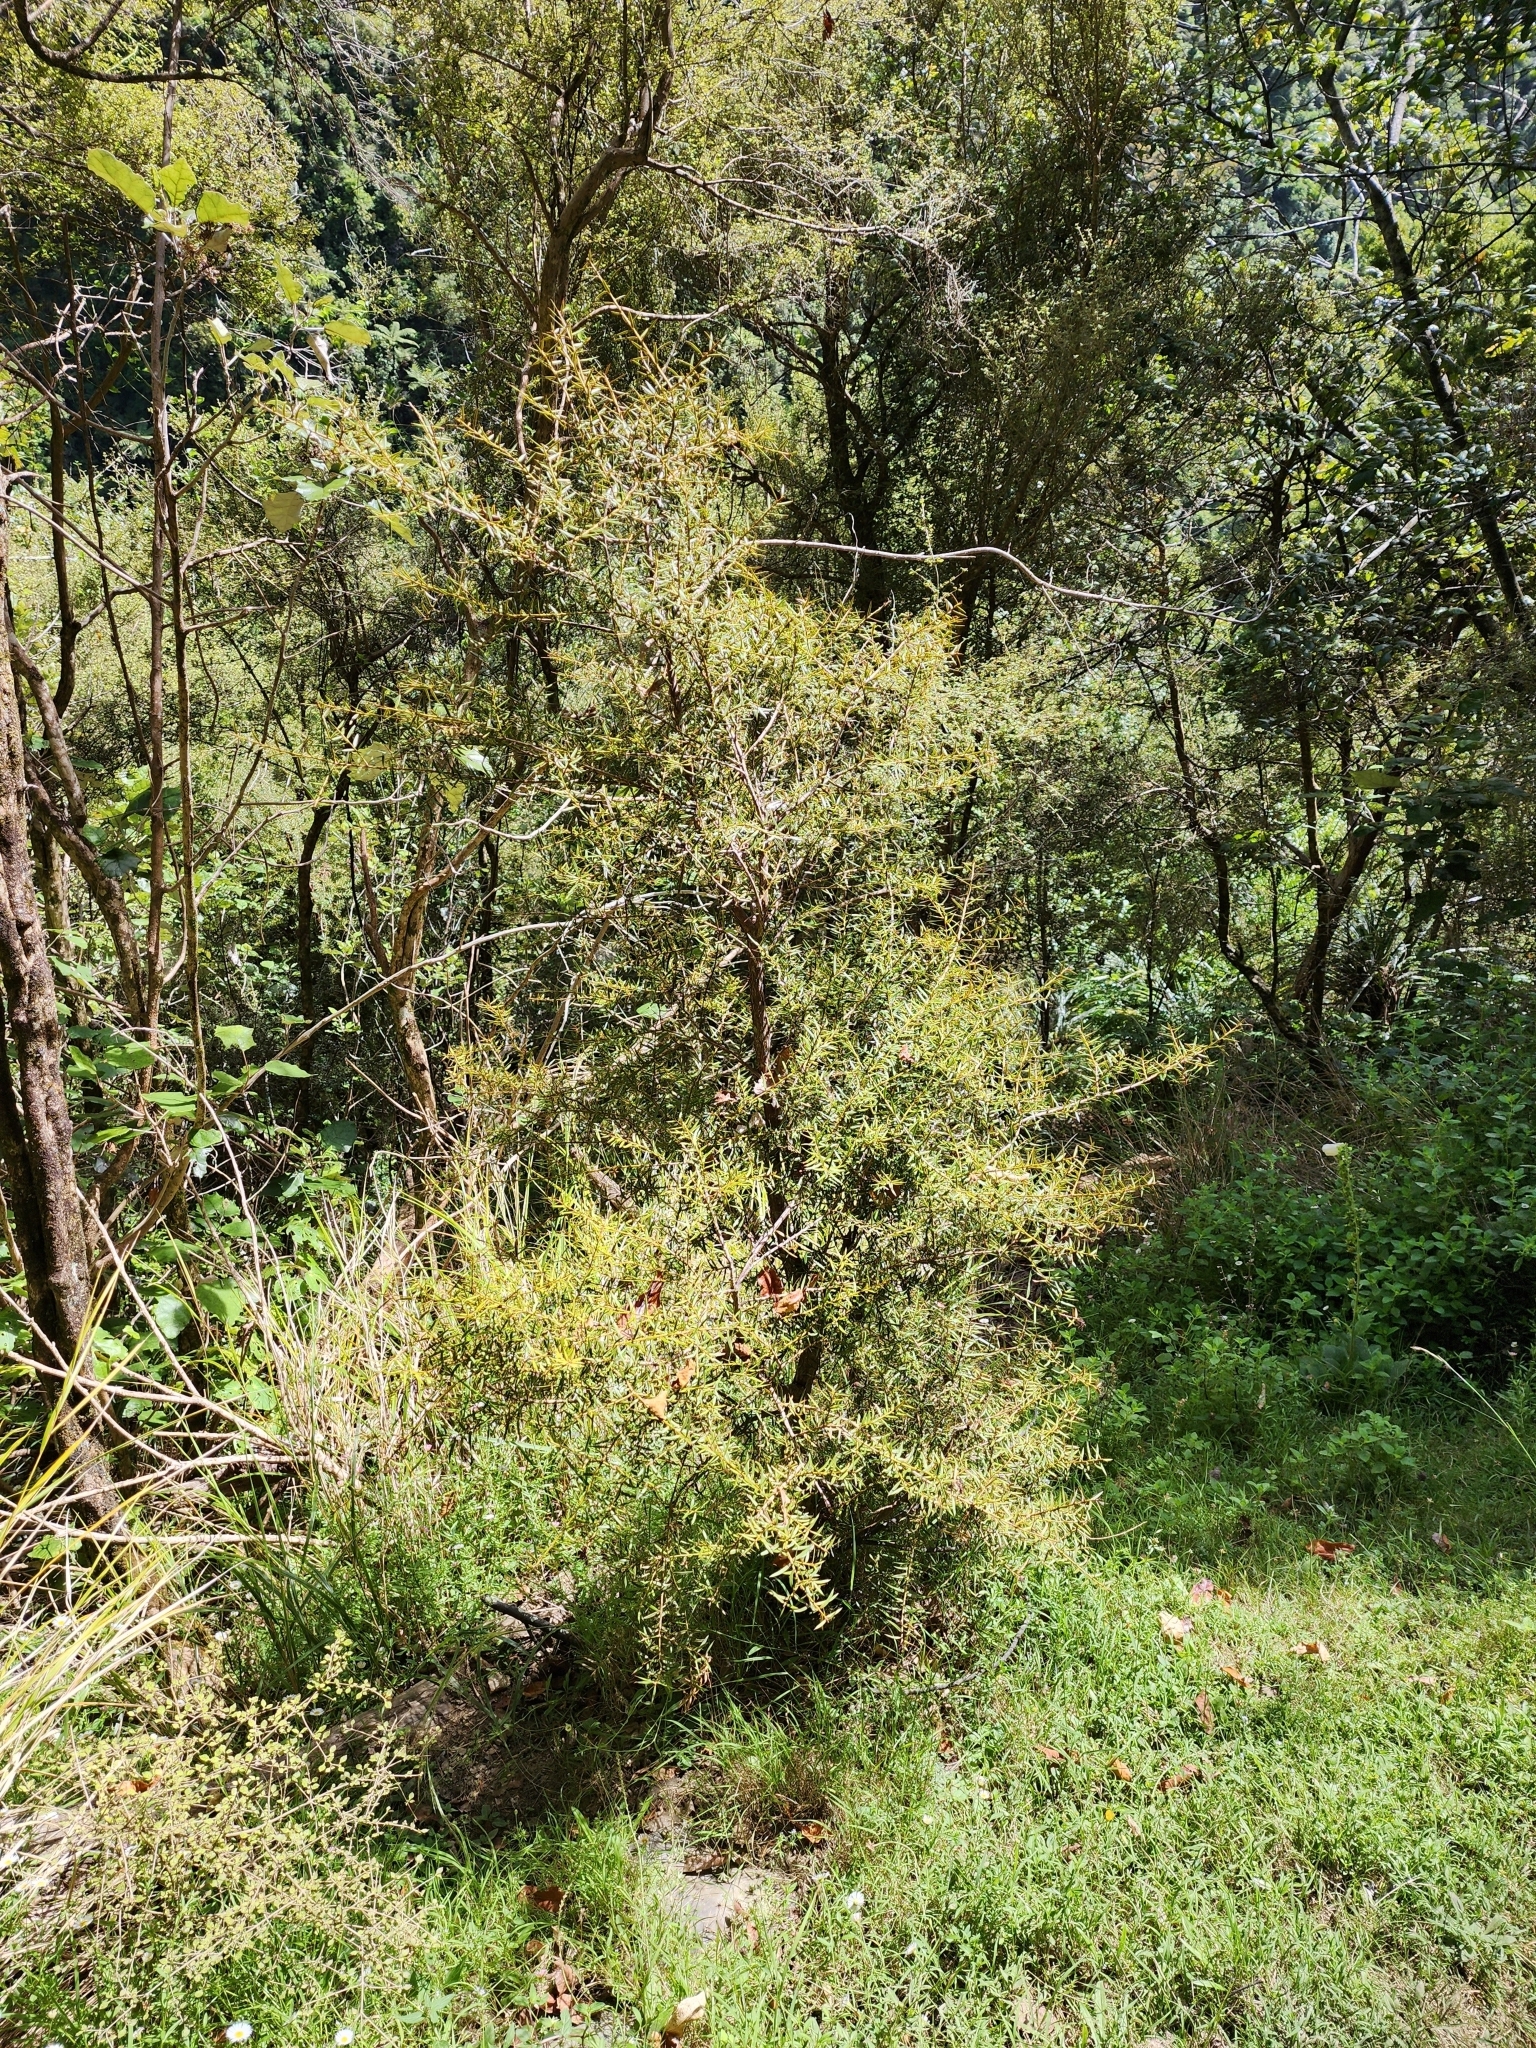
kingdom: Plantae
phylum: Tracheophyta
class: Pinopsida
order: Pinales
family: Podocarpaceae
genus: Podocarpus
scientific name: Podocarpus totara
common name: Totara
